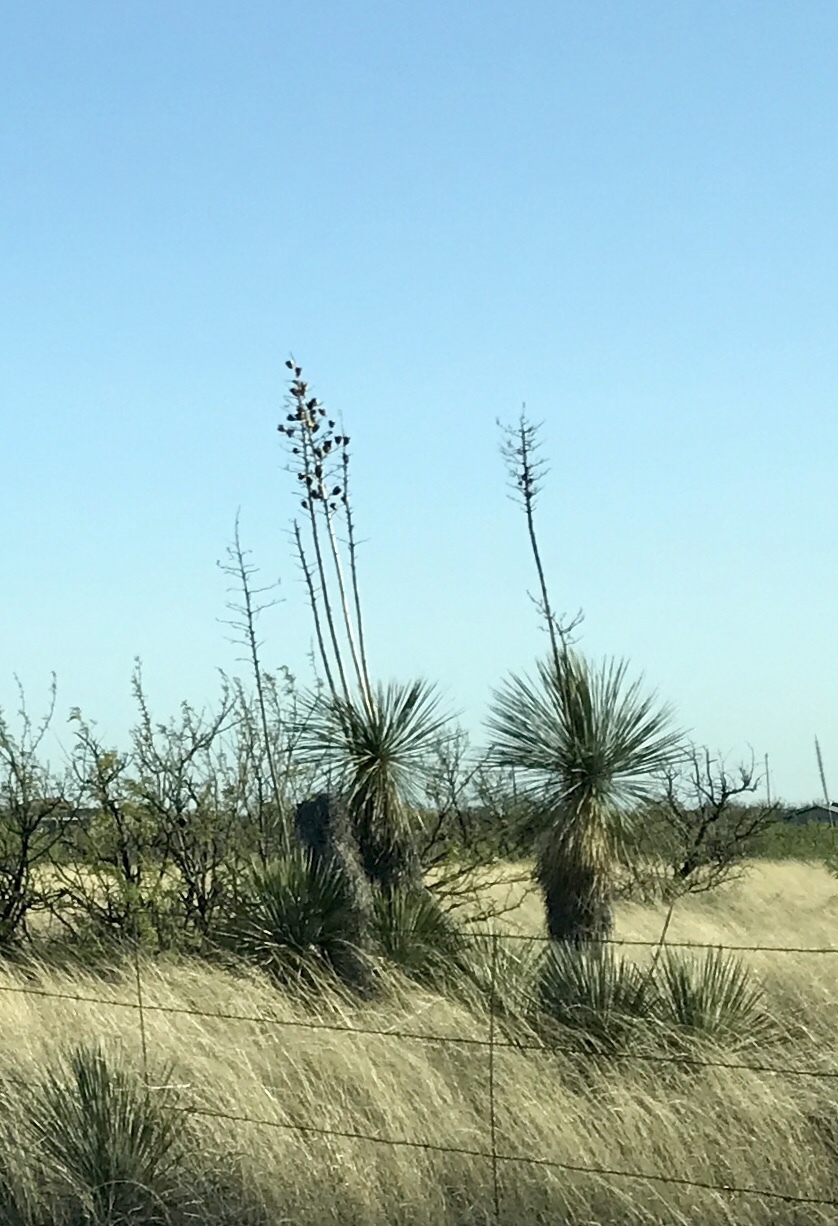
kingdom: Plantae
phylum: Tracheophyta
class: Liliopsida
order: Asparagales
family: Asparagaceae
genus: Yucca
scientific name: Yucca elata
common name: Palmella
